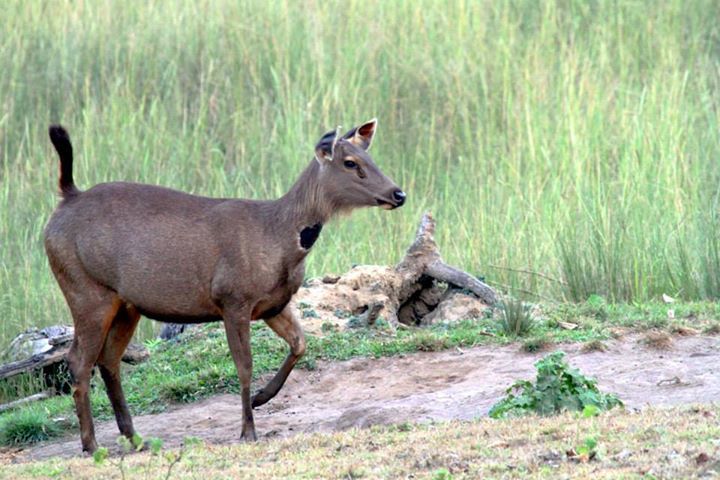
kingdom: Animalia
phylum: Chordata
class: Mammalia
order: Artiodactyla
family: Cervidae
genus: Rusa
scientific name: Rusa unicolor
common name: Sambar
